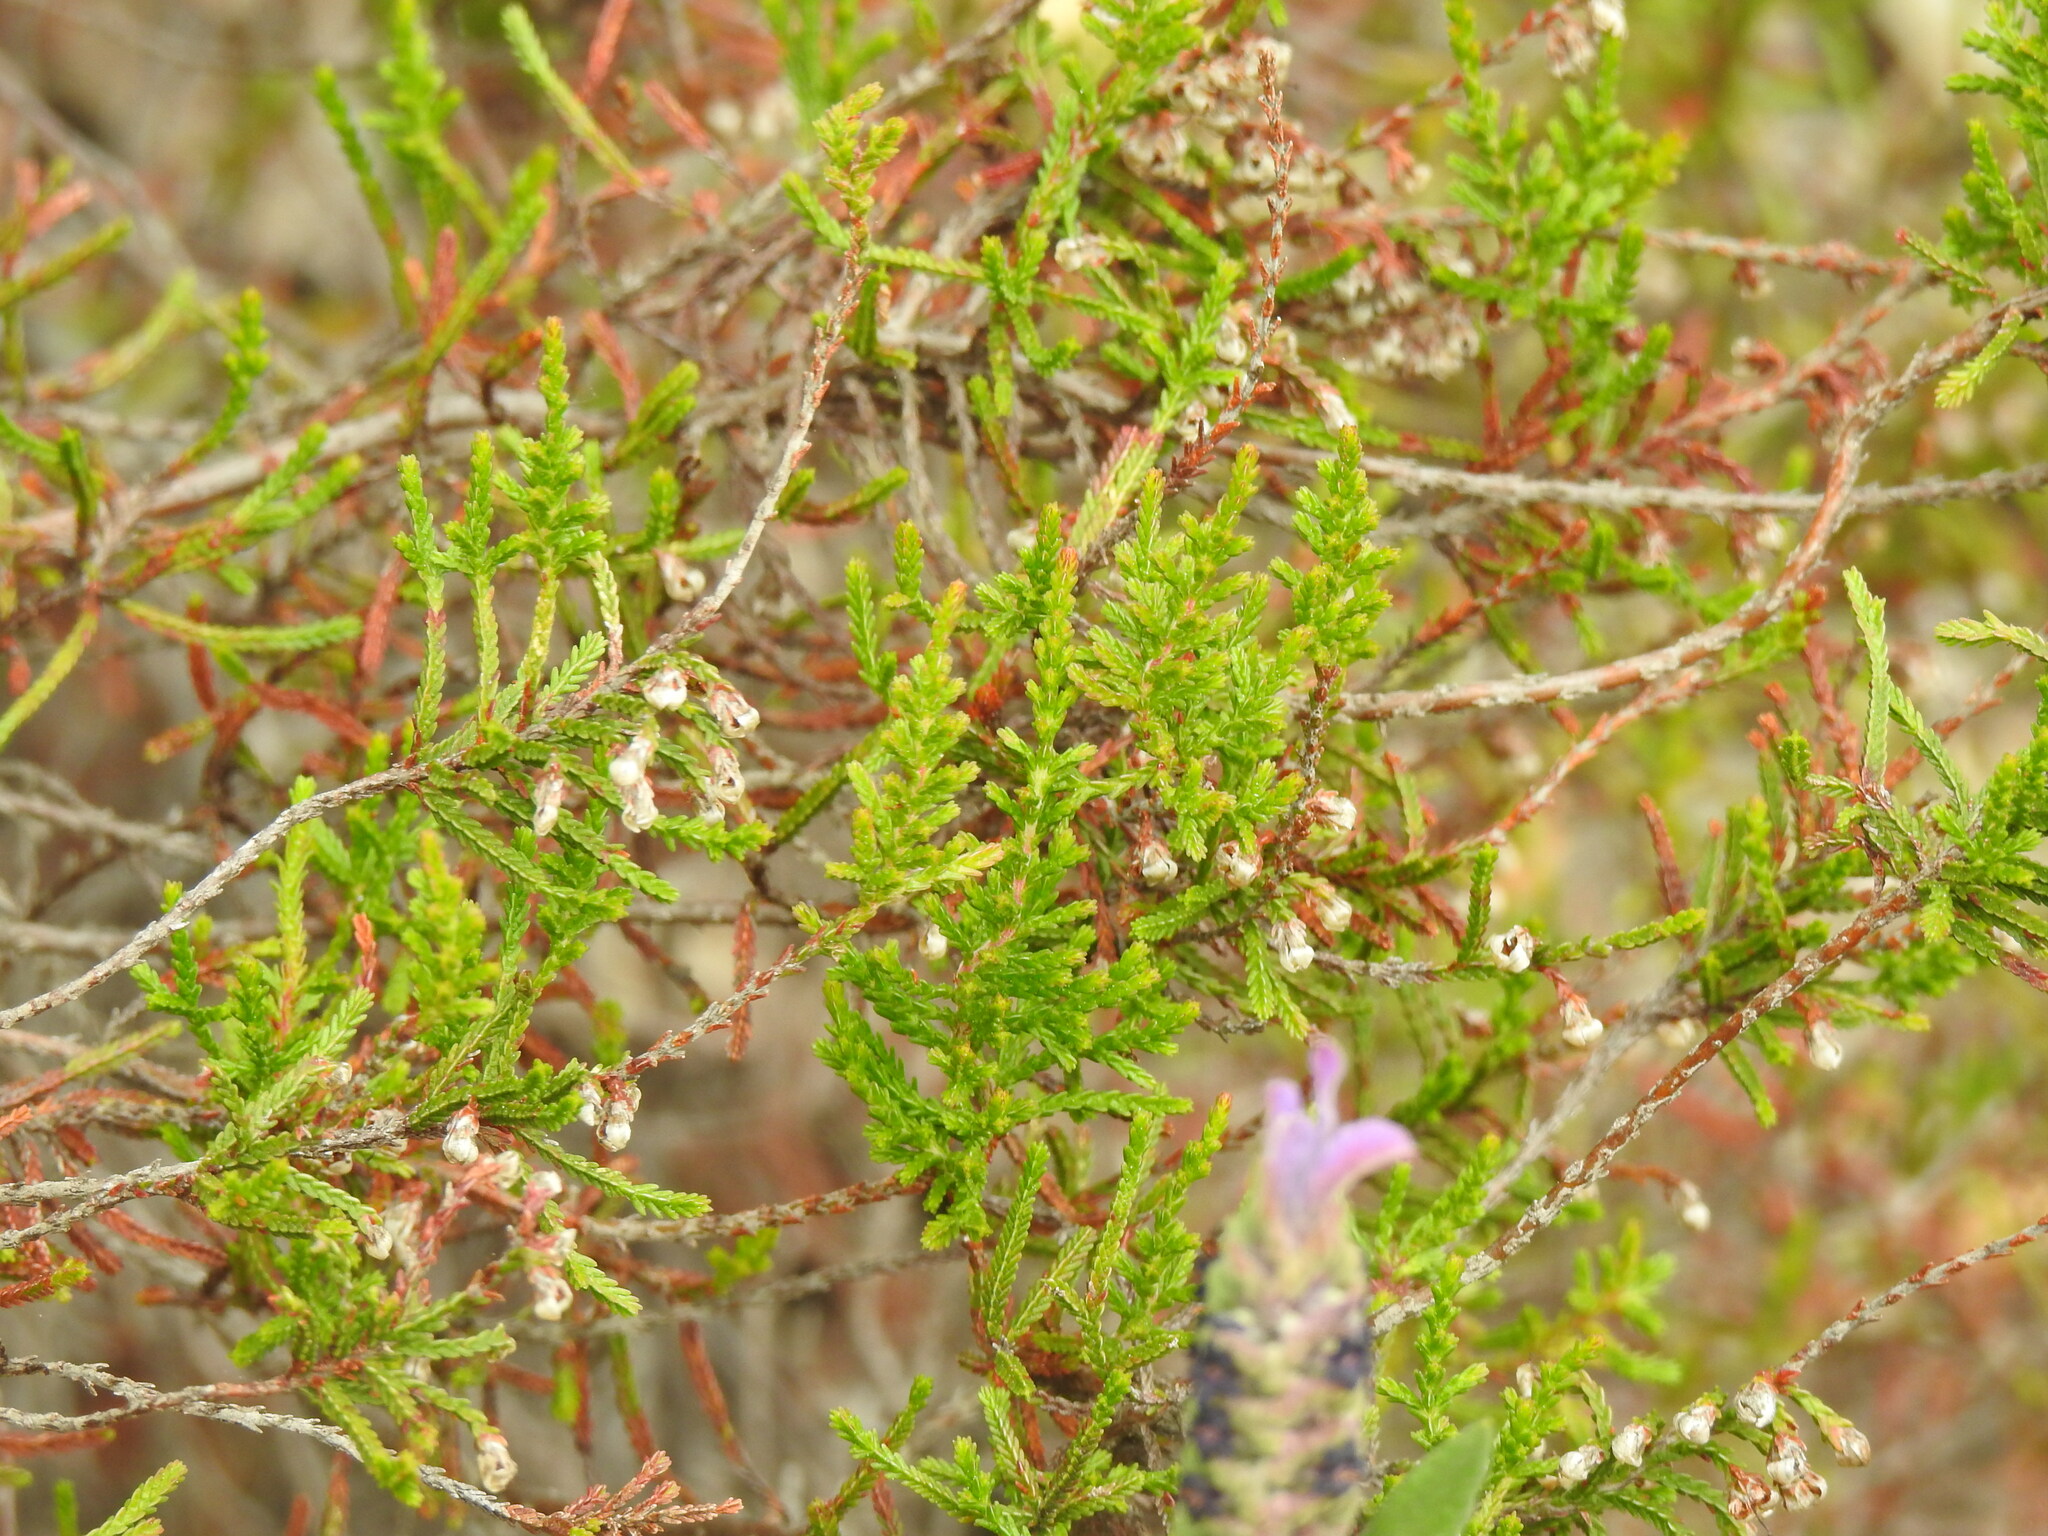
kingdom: Plantae
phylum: Tracheophyta
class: Magnoliopsida
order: Ericales
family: Ericaceae
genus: Calluna
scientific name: Calluna vulgaris
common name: Heather
